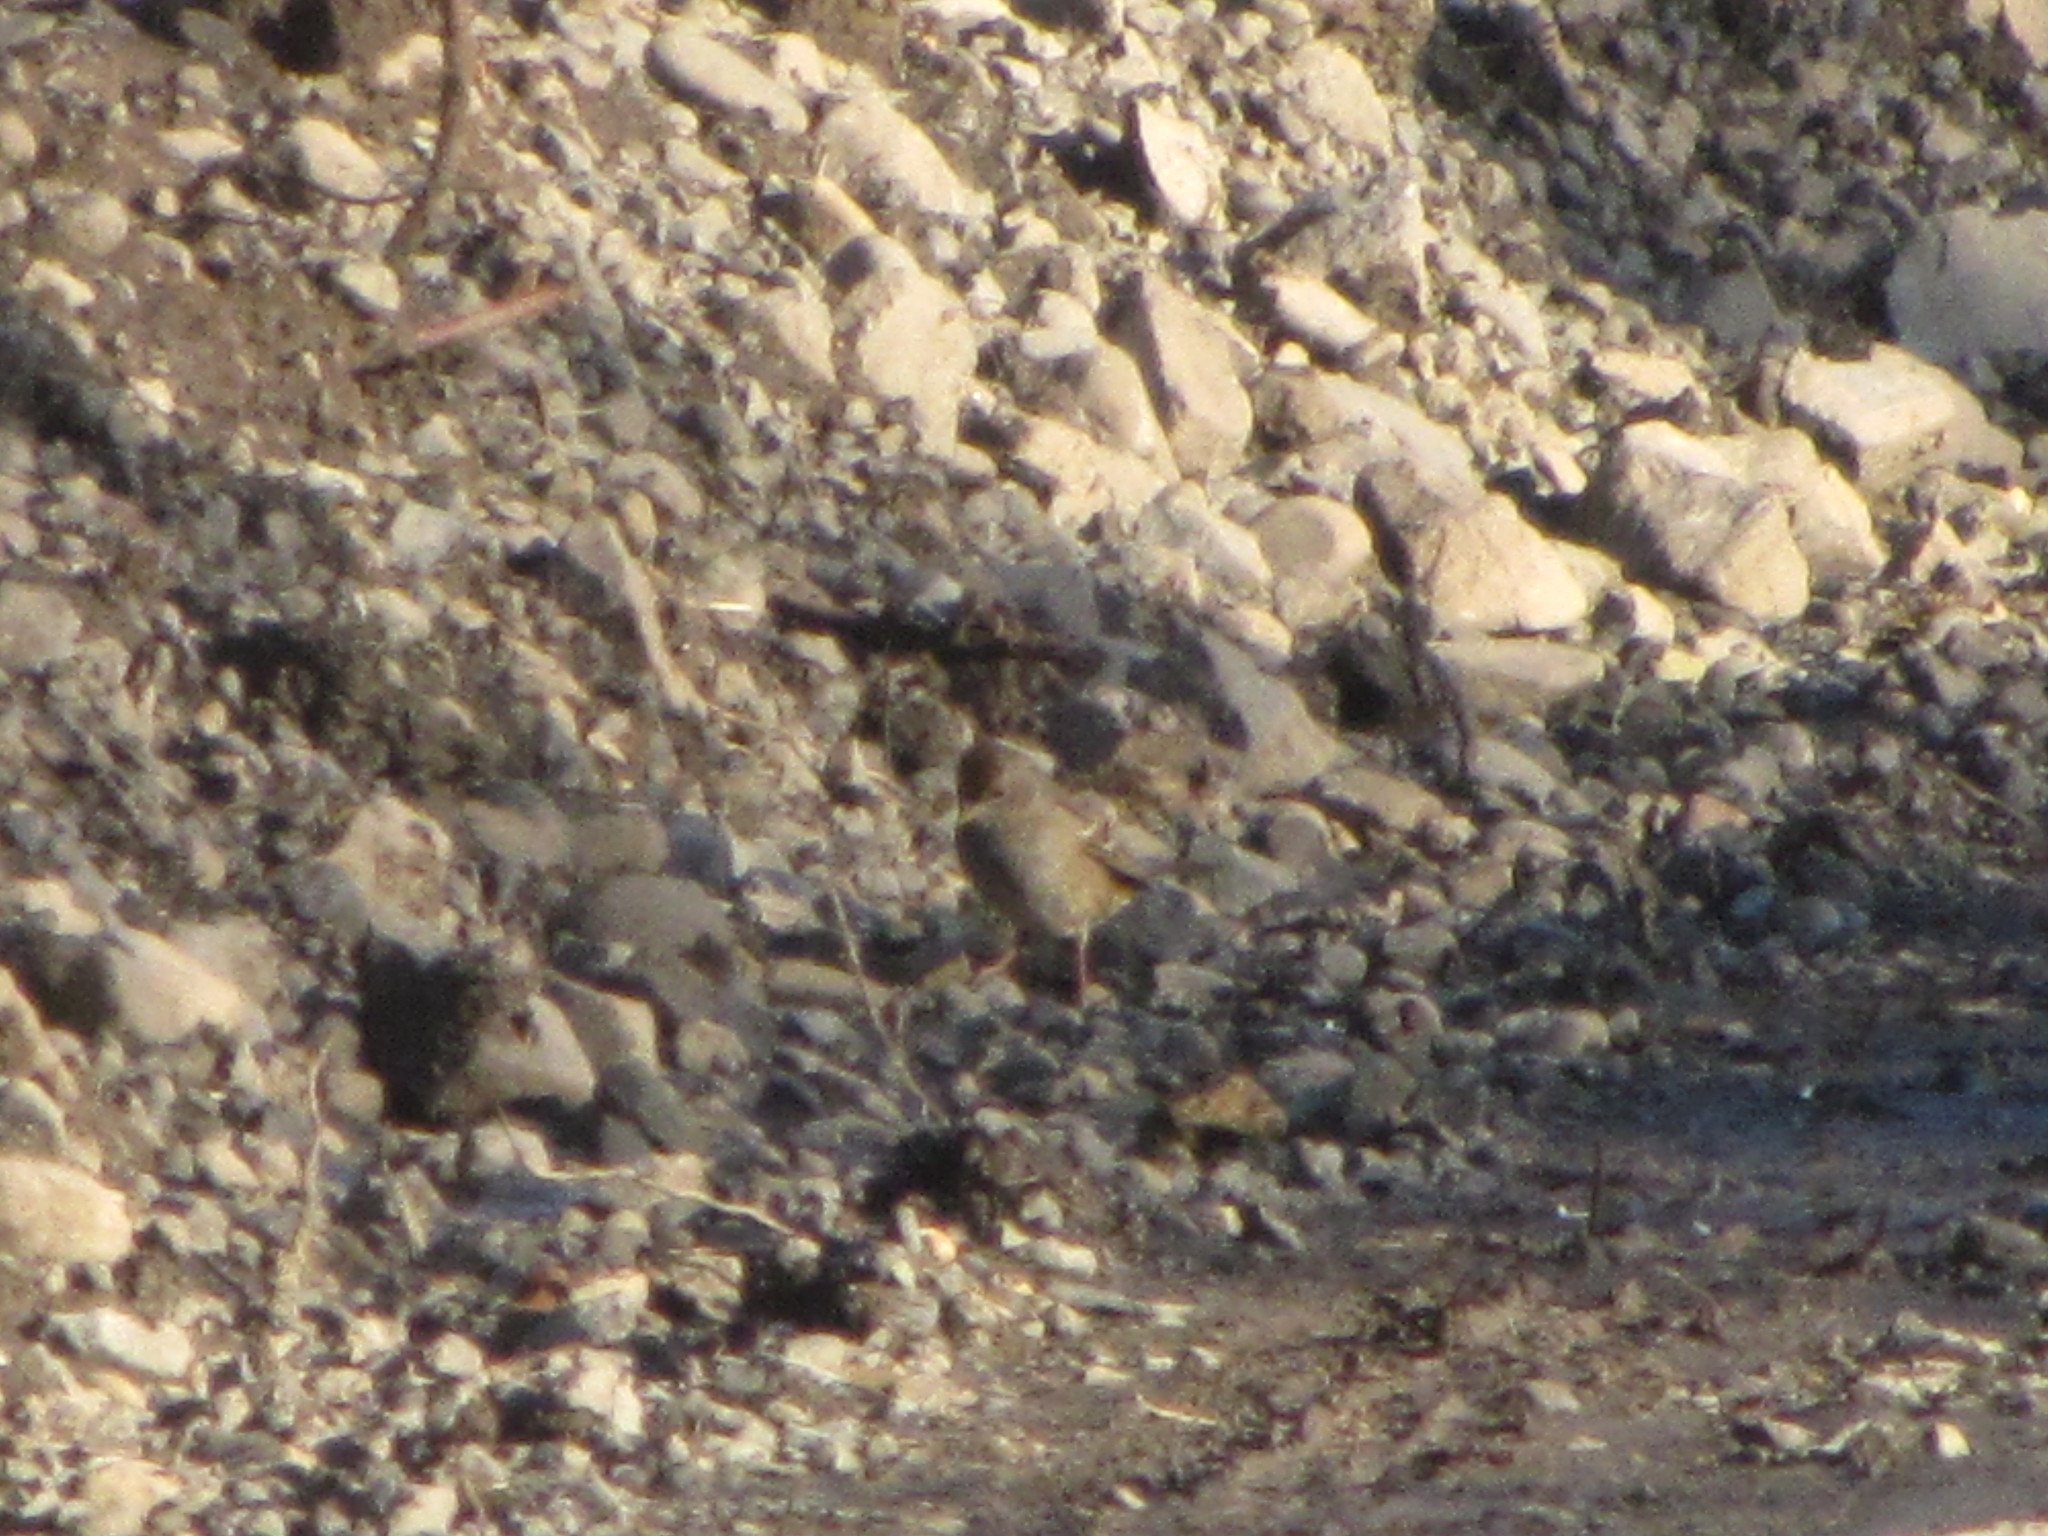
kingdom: Animalia
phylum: Chordata
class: Aves
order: Passeriformes
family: Passerellidae
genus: Zonotrichia
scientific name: Zonotrichia atricapilla
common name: Golden-crowned sparrow
